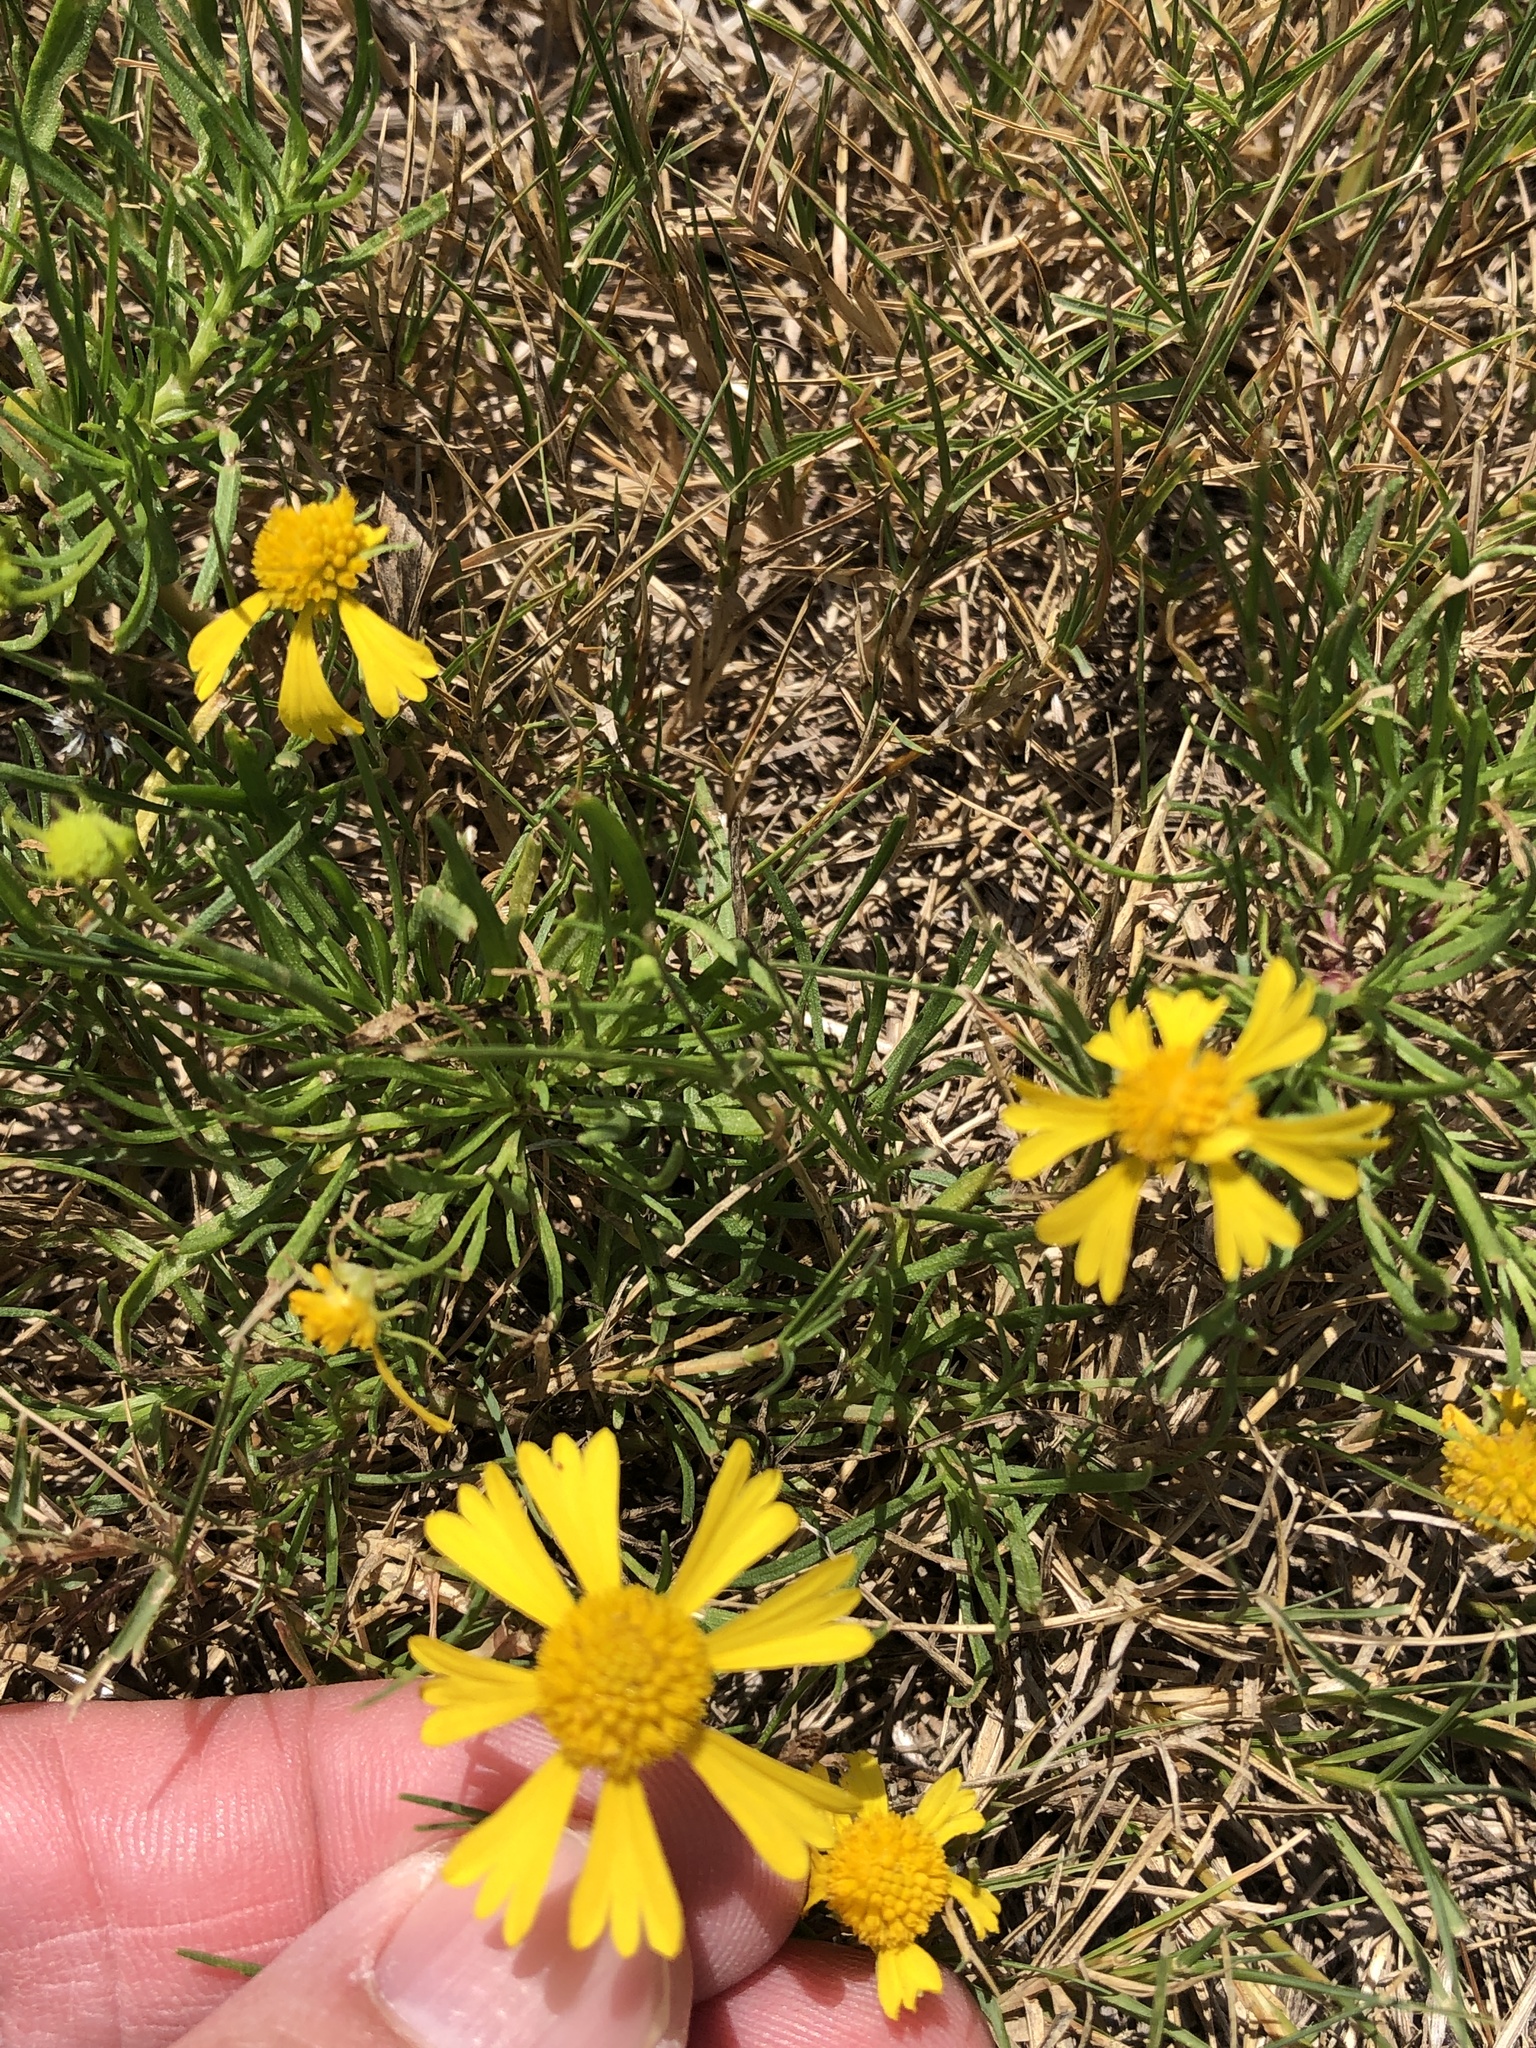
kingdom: Plantae
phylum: Tracheophyta
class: Magnoliopsida
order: Asterales
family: Asteraceae
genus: Helenium
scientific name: Helenium amarum
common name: Bitter sneezeweed
